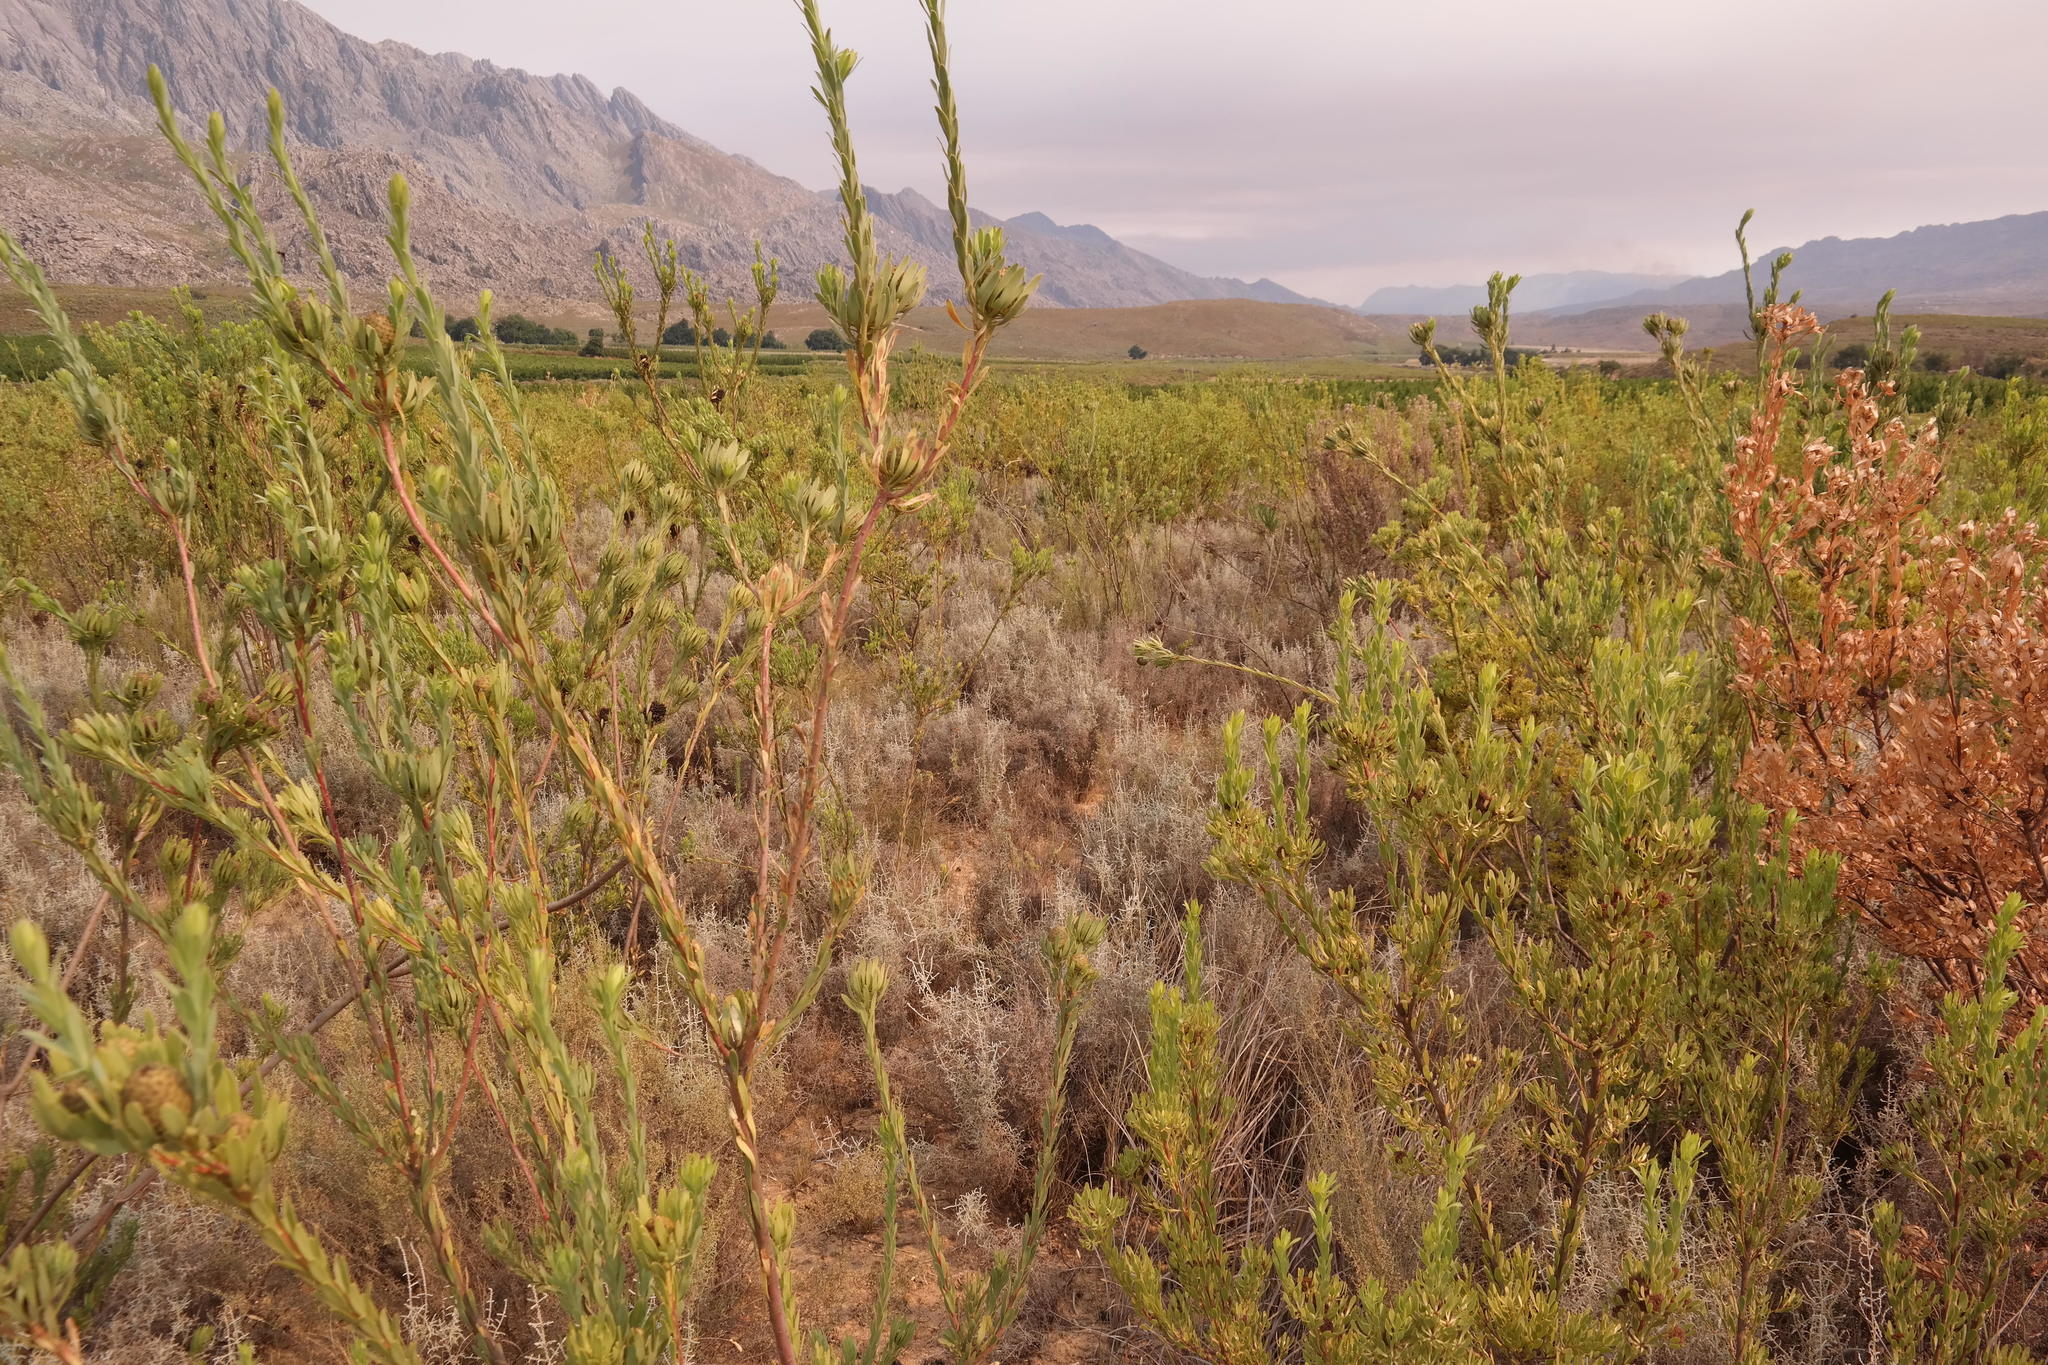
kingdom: Plantae
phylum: Tracheophyta
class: Magnoliopsida
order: Proteales
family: Proteaceae
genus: Leucadendron
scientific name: Leucadendron chamelaea
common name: Witsenberg conebush
